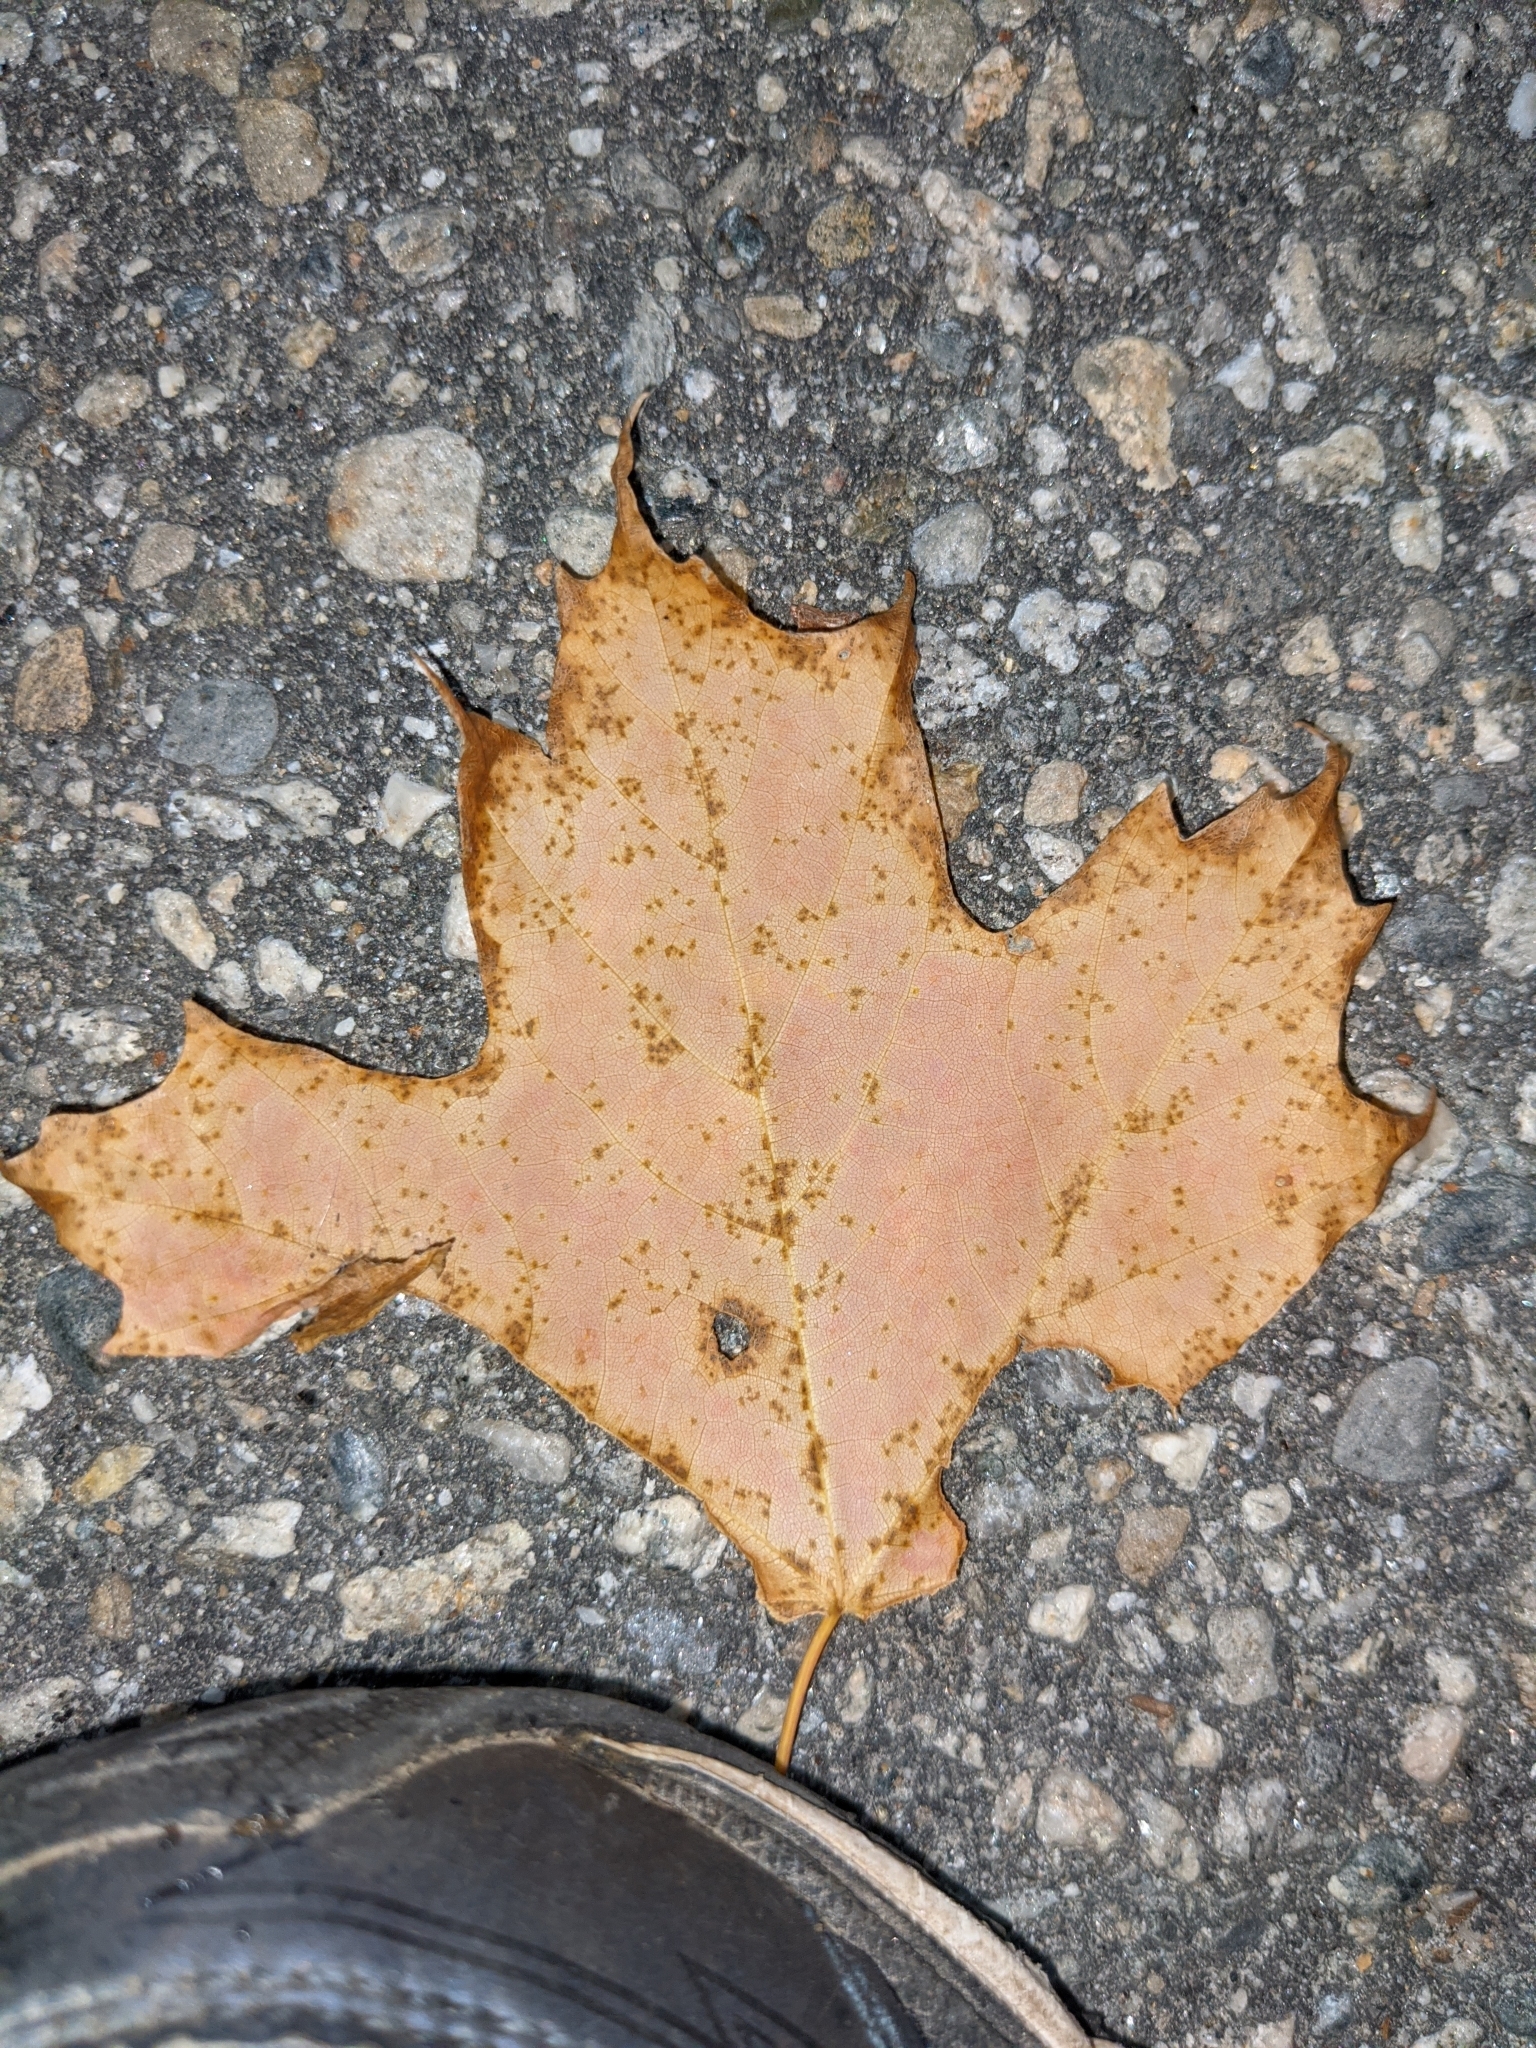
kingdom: Plantae
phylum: Tracheophyta
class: Magnoliopsida
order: Sapindales
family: Sapindaceae
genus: Acer
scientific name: Acer saccharum
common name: Sugar maple
